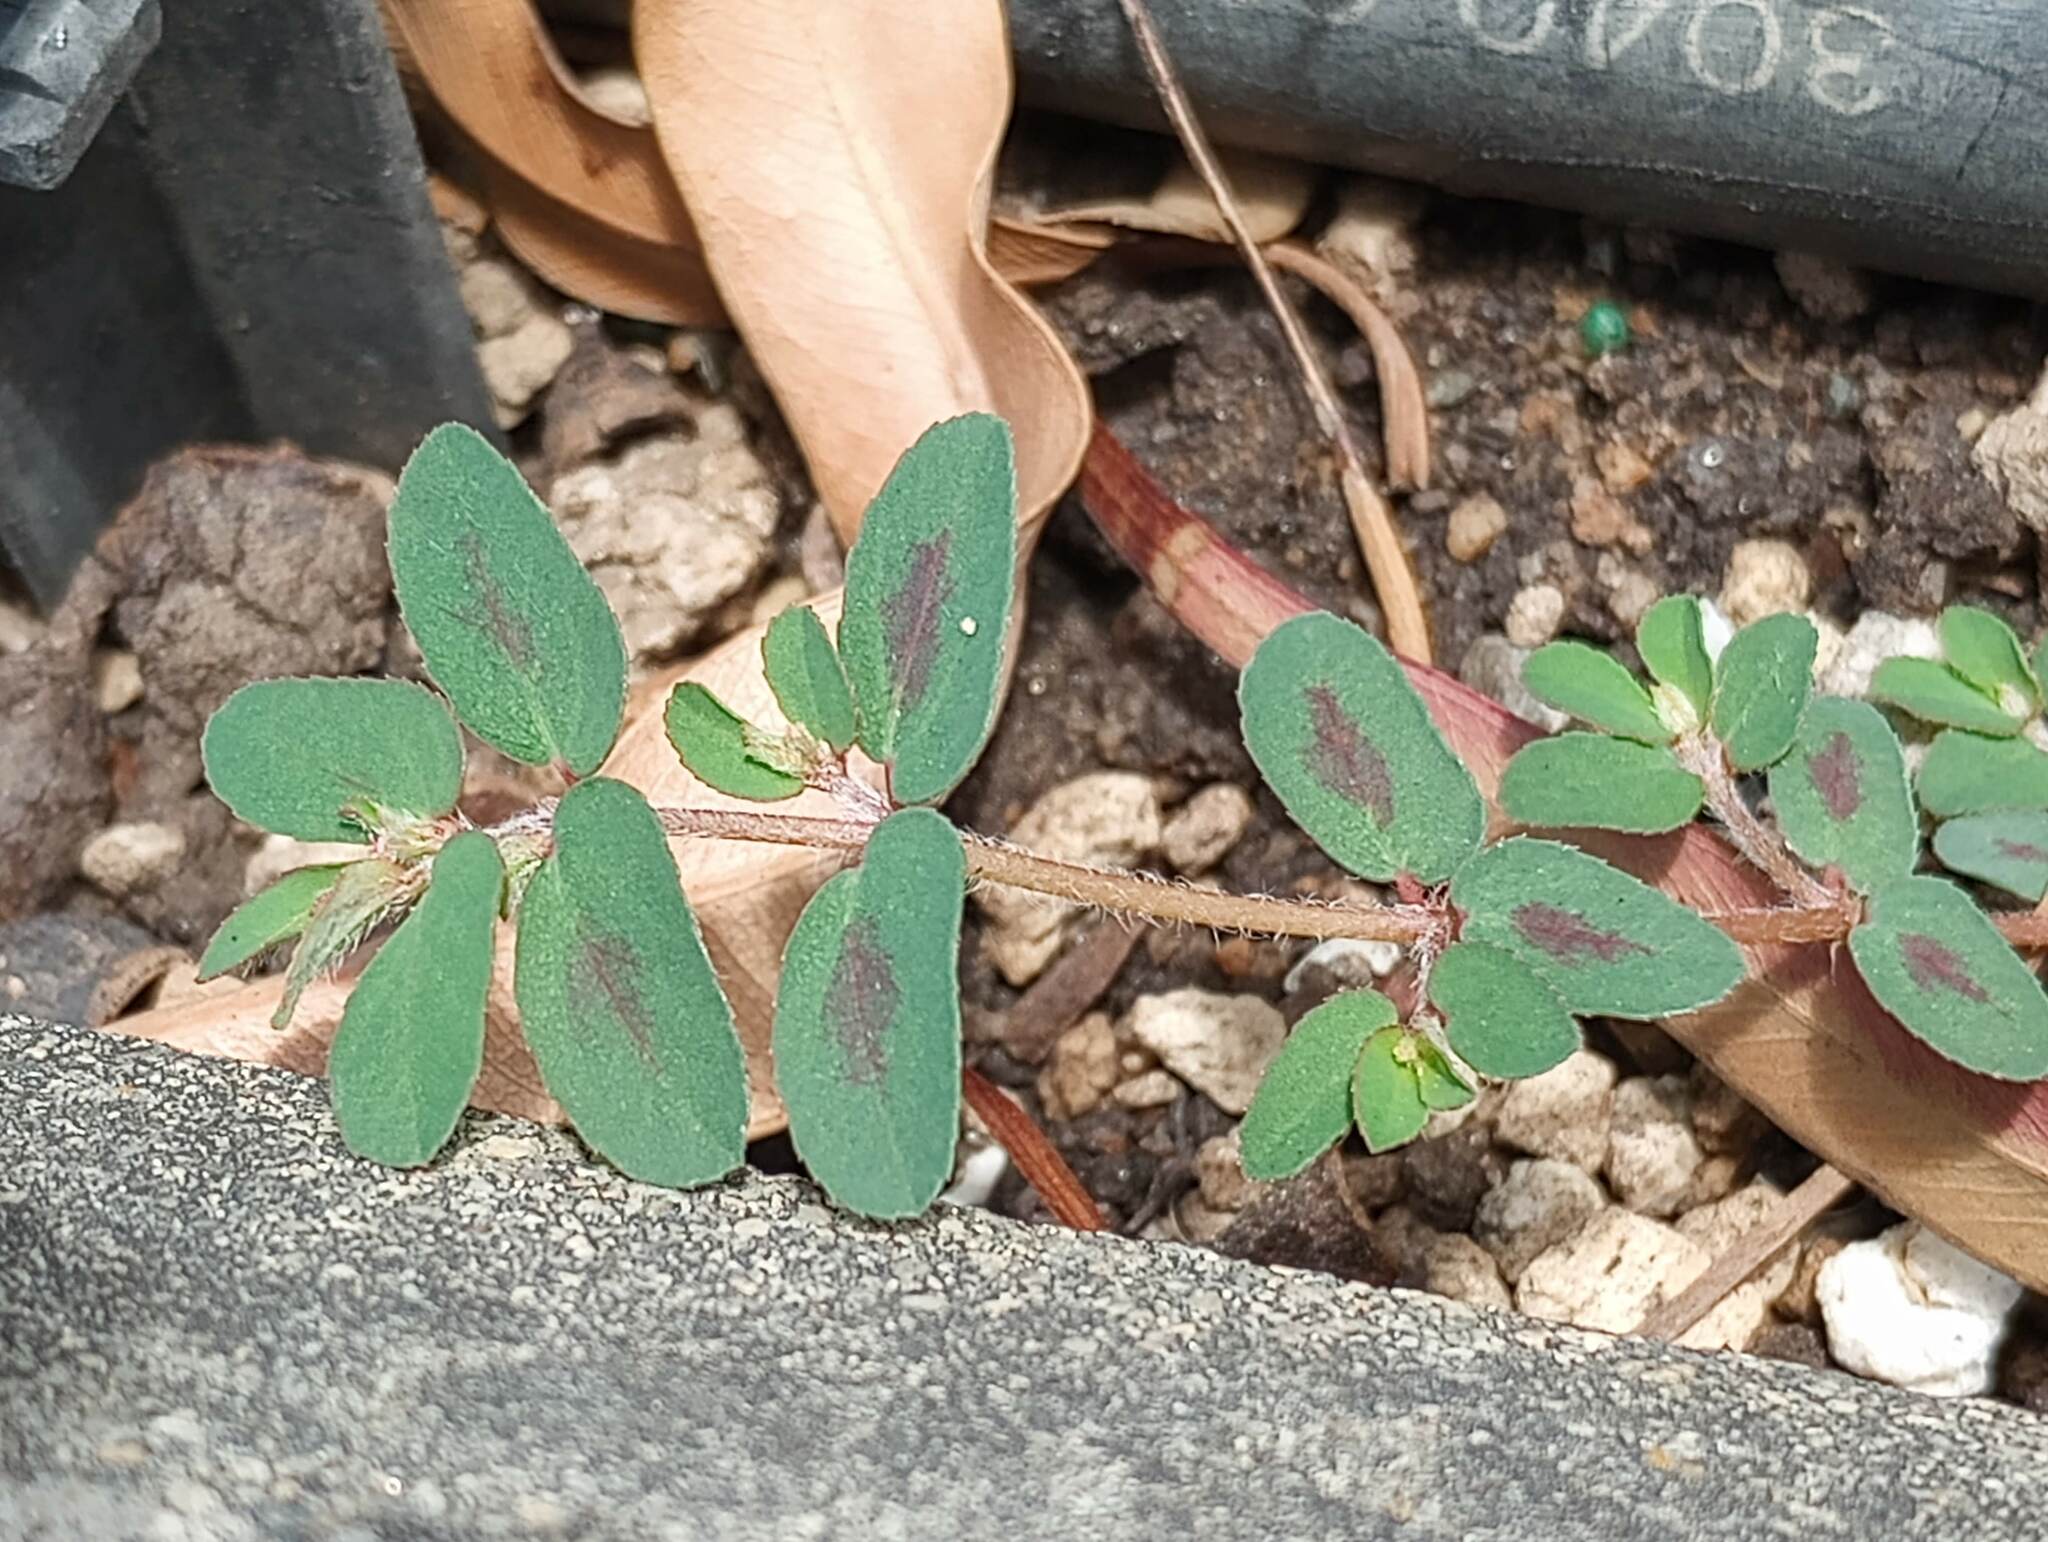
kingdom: Plantae
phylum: Tracheophyta
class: Magnoliopsida
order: Malpighiales
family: Euphorbiaceae
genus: Euphorbia
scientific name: Euphorbia maculata
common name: Spotted spurge
